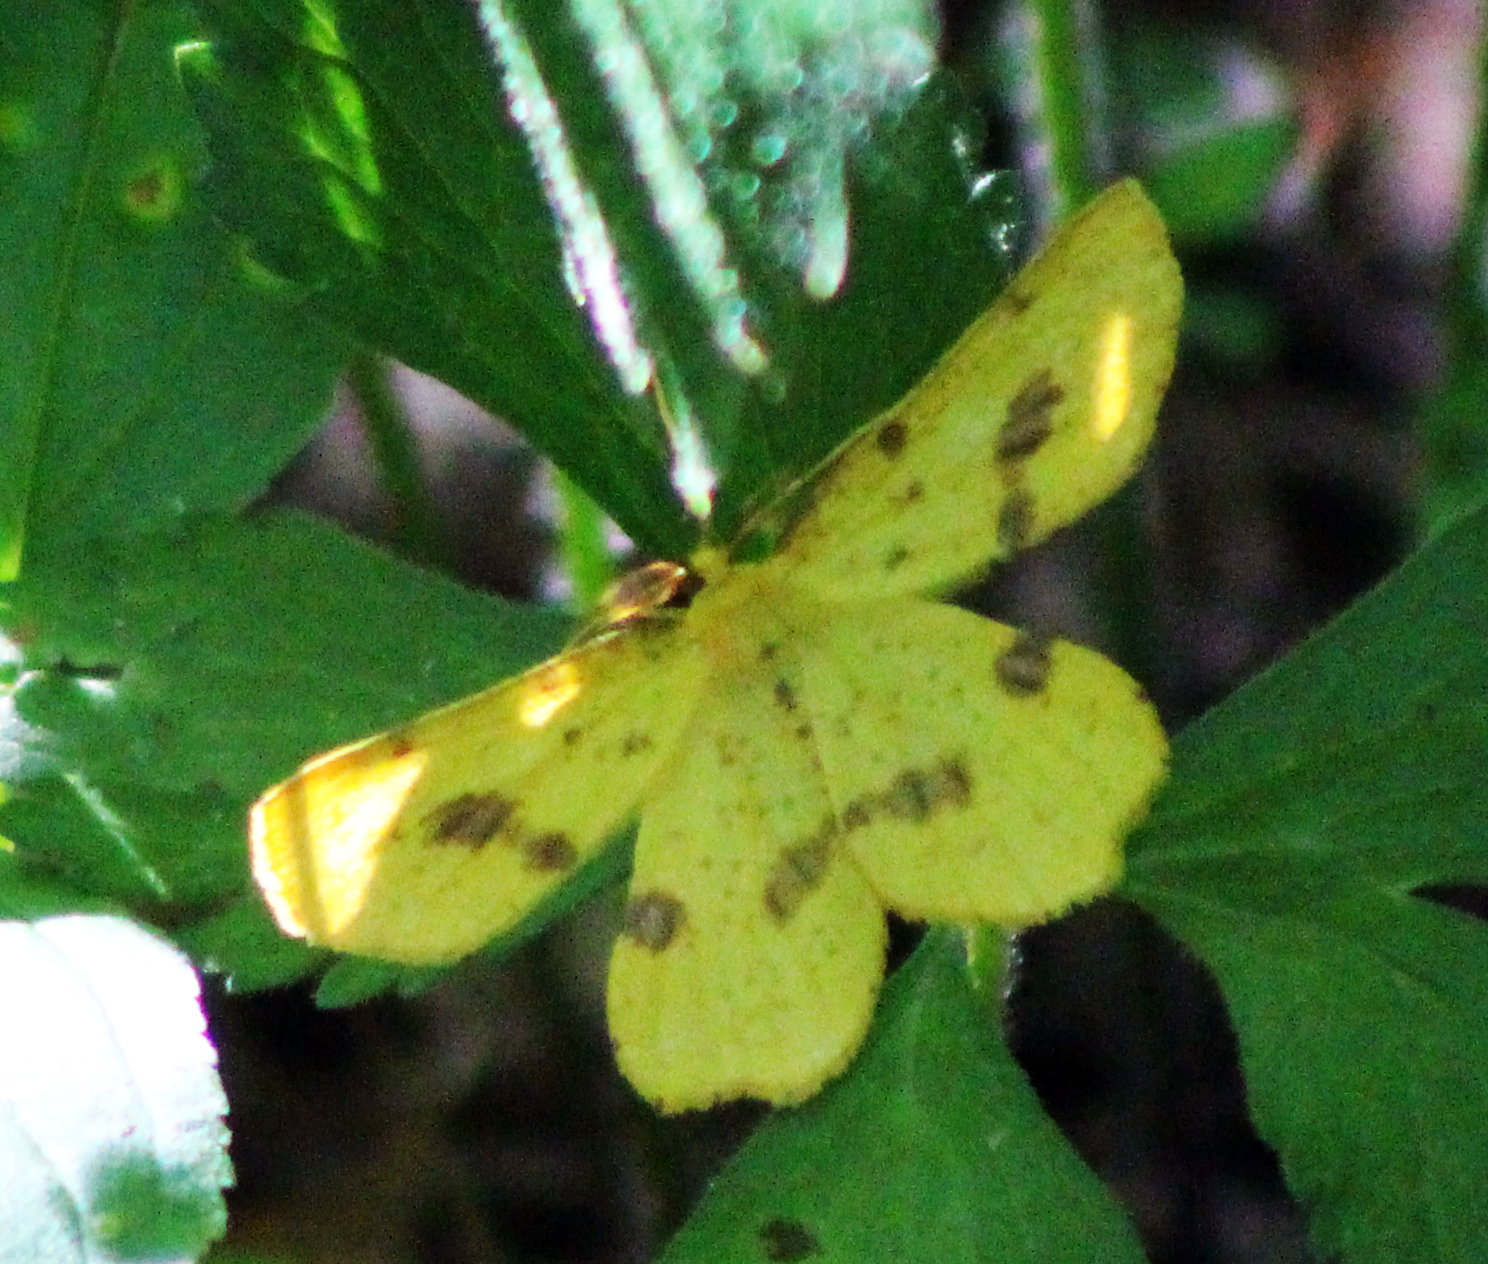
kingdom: Animalia
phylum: Arthropoda
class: Insecta
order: Lepidoptera
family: Geometridae
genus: Xanthotype
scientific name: Xanthotype
